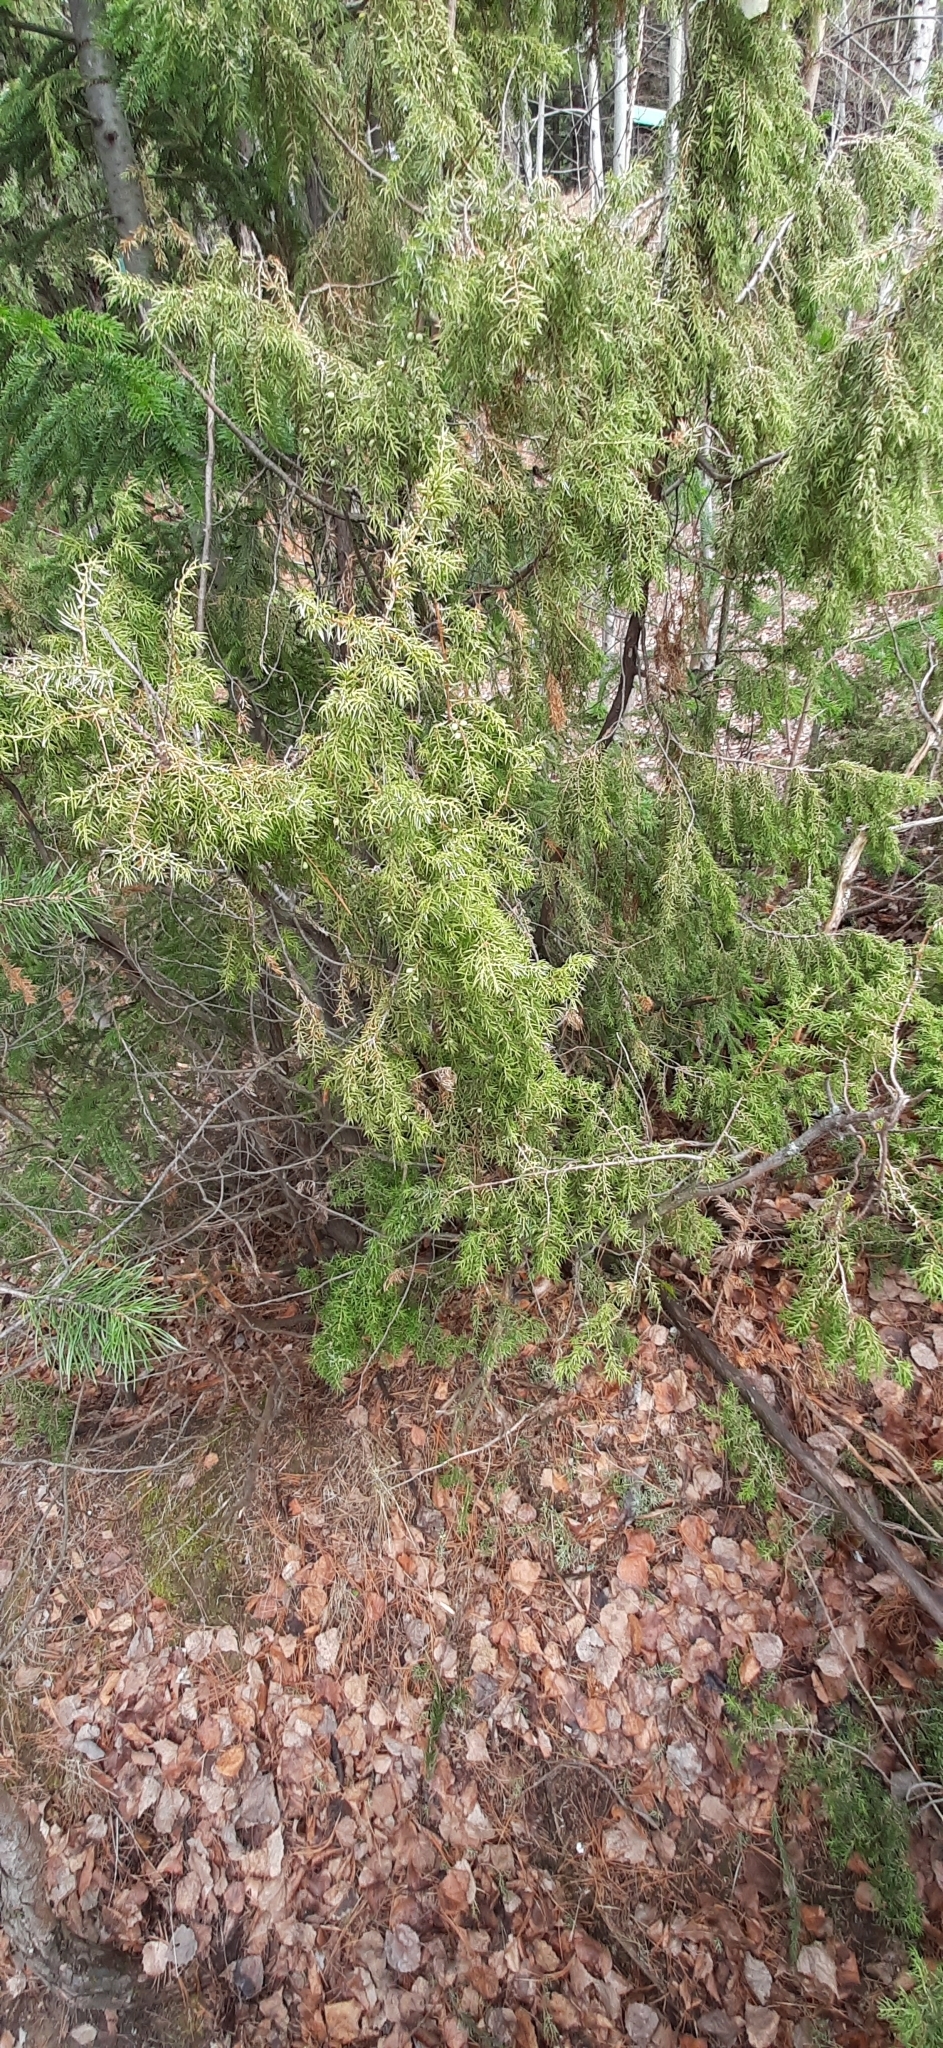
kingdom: Plantae
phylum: Tracheophyta
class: Pinopsida
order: Pinales
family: Cupressaceae
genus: Juniperus
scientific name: Juniperus communis
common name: Common juniper
